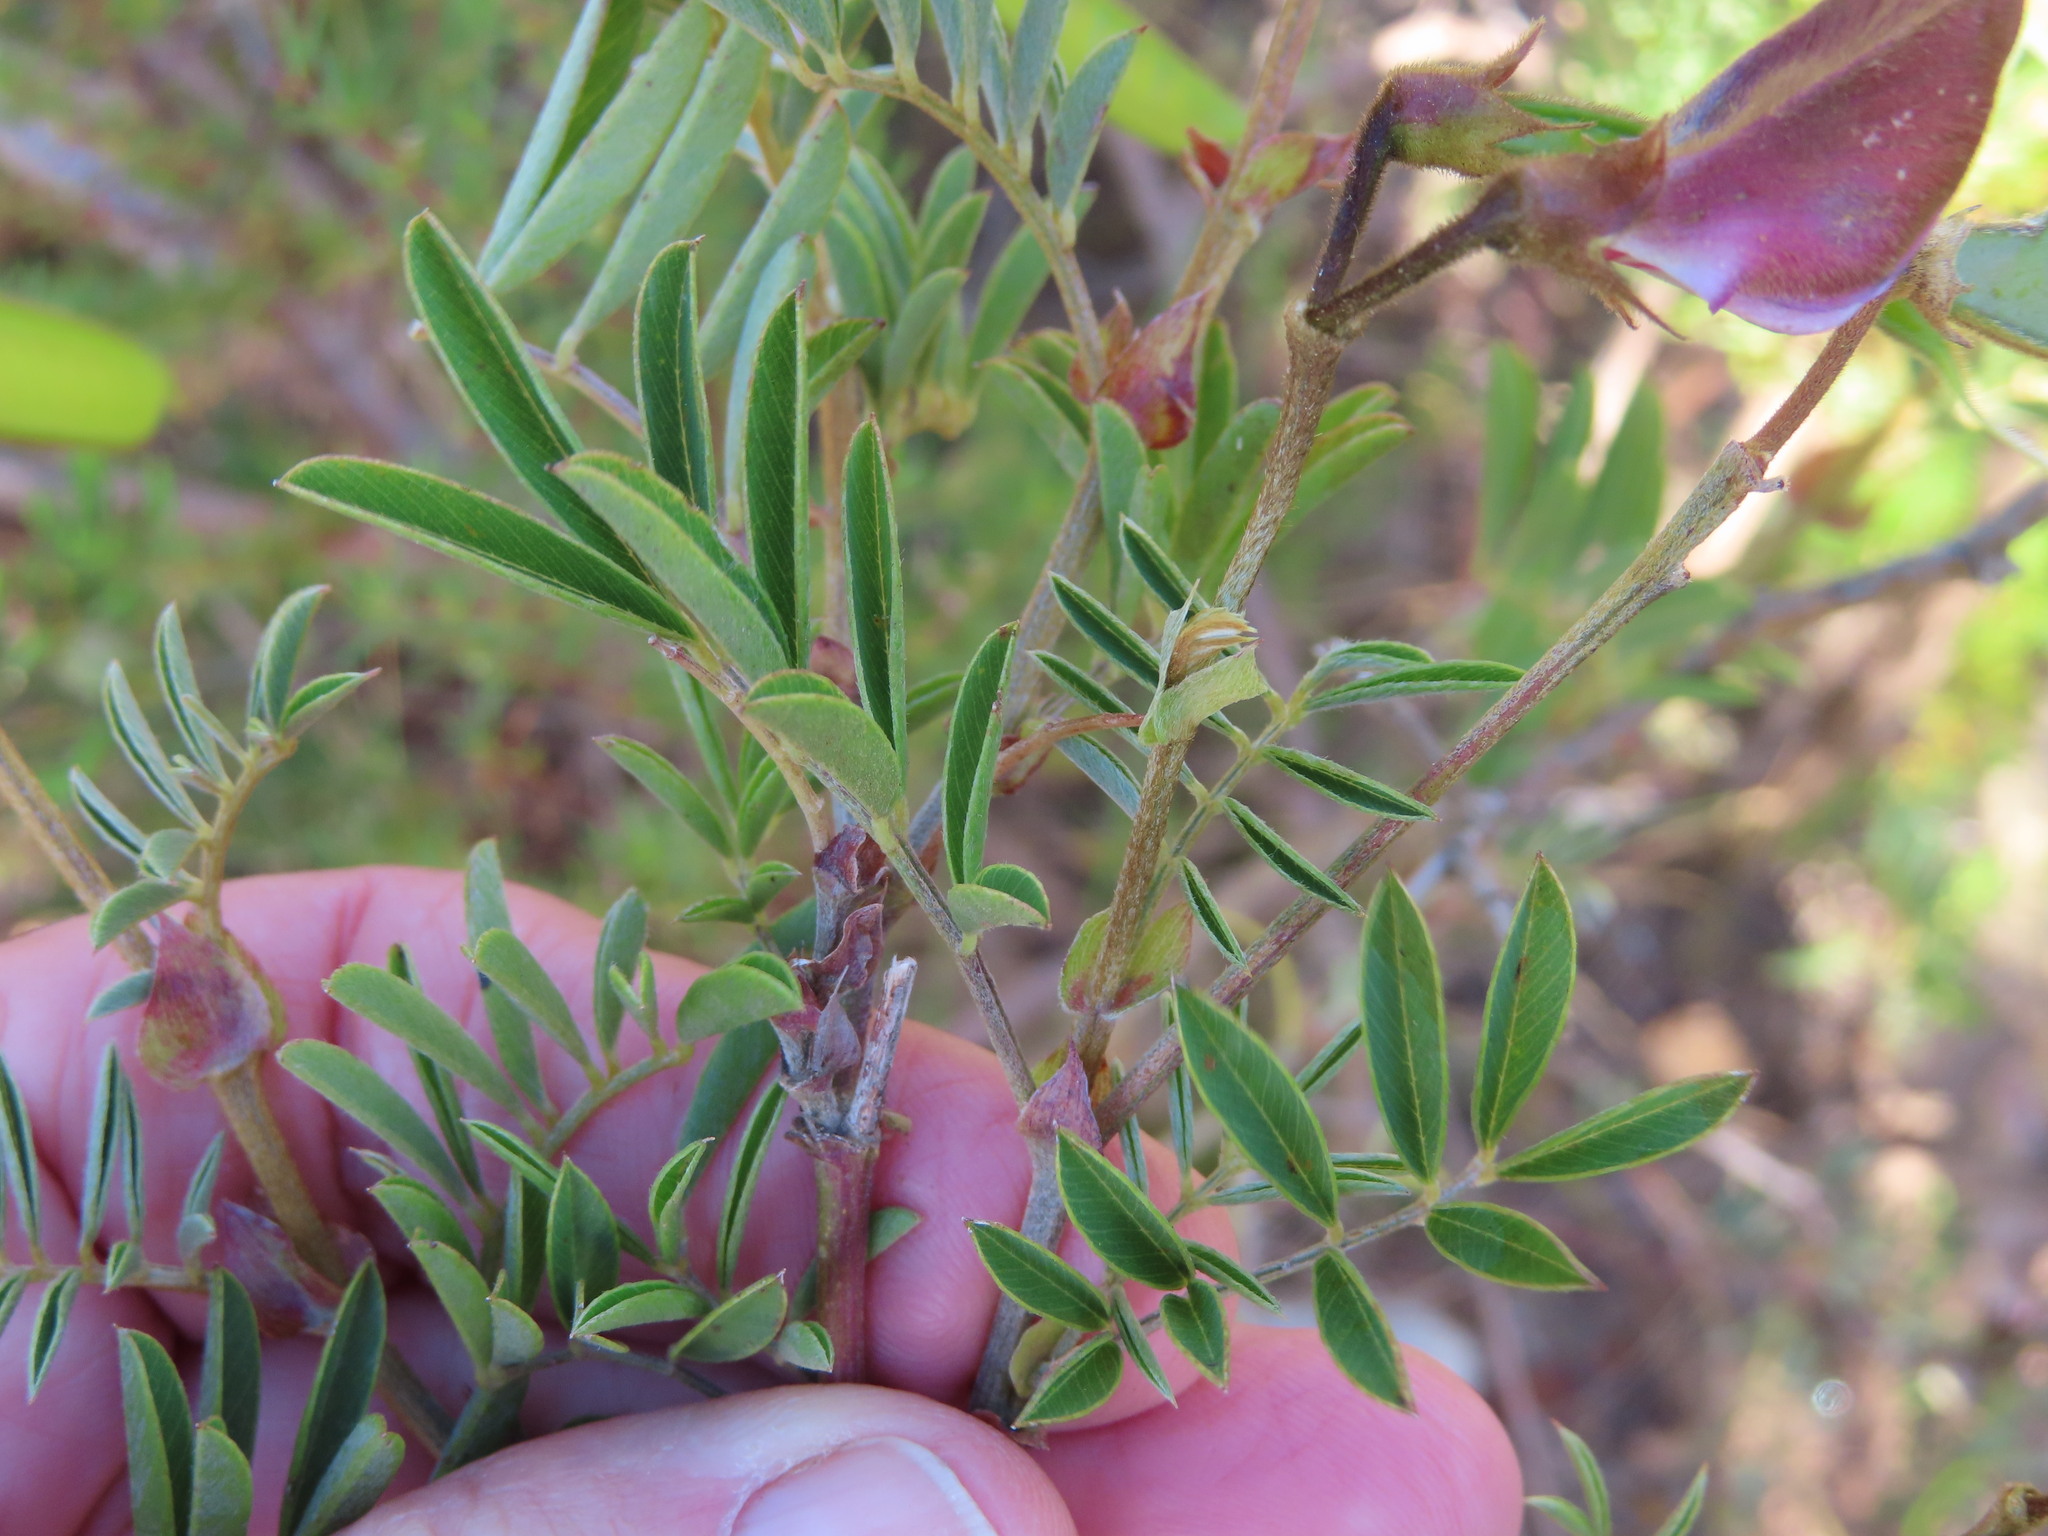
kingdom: Plantae
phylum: Tracheophyta
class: Magnoliopsida
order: Fabales
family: Fabaceae
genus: Tephrosia
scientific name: Tephrosia grandiflora
